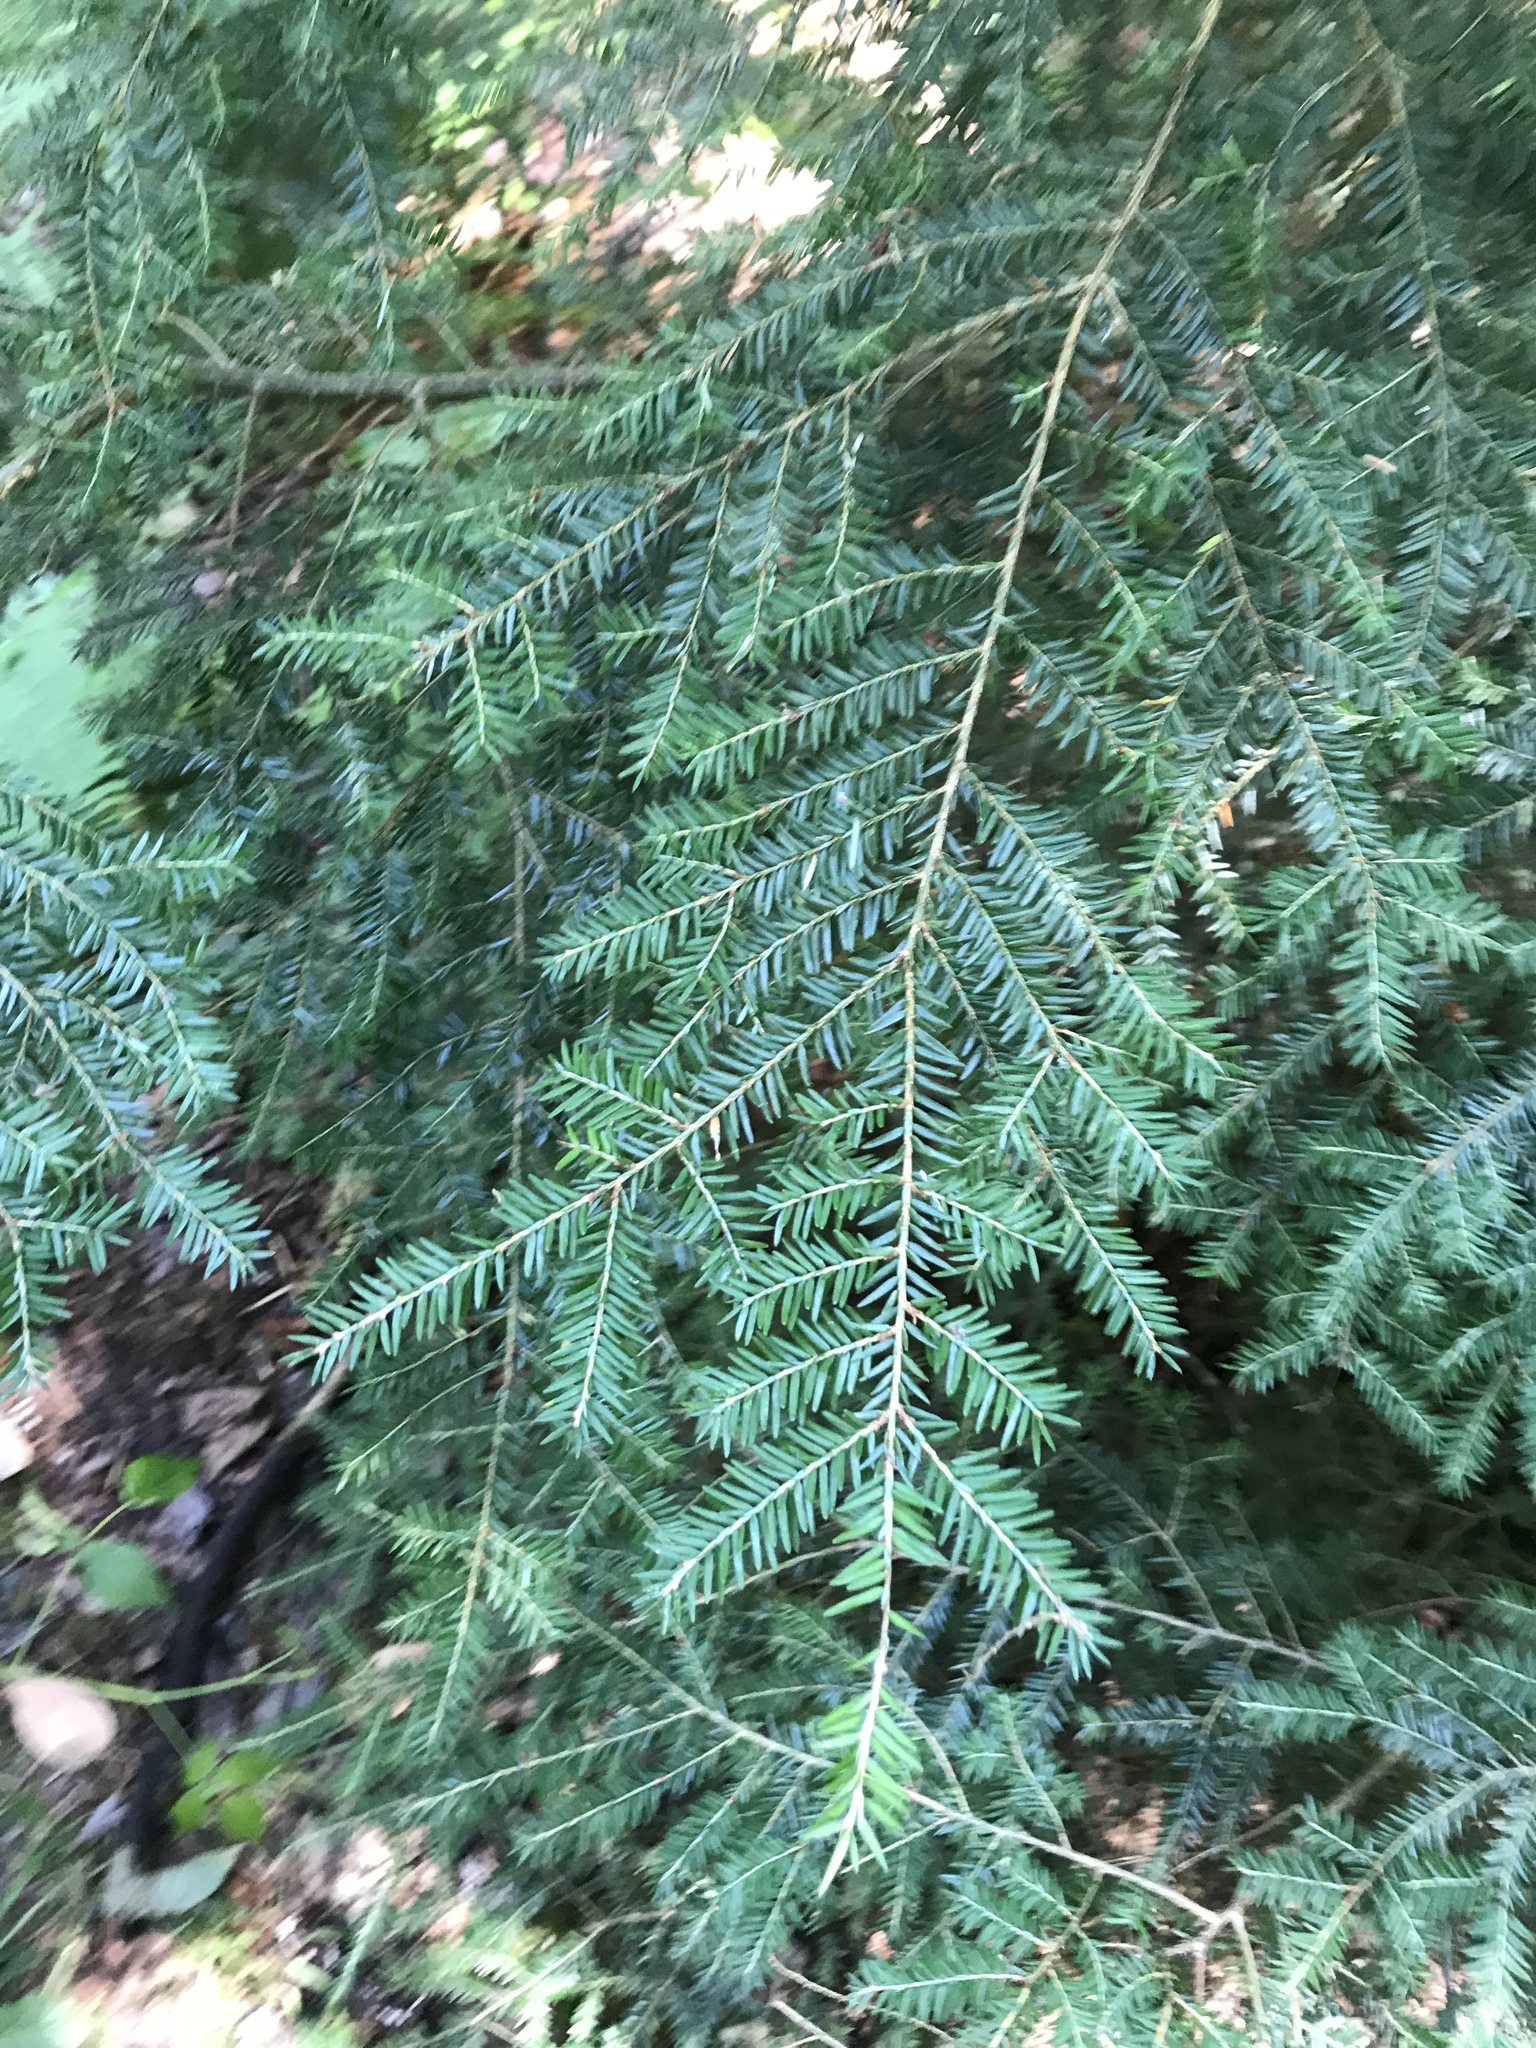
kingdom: Plantae
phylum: Tracheophyta
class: Pinopsida
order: Pinales
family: Pinaceae
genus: Tsuga
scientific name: Tsuga canadensis
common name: Eastern hemlock
